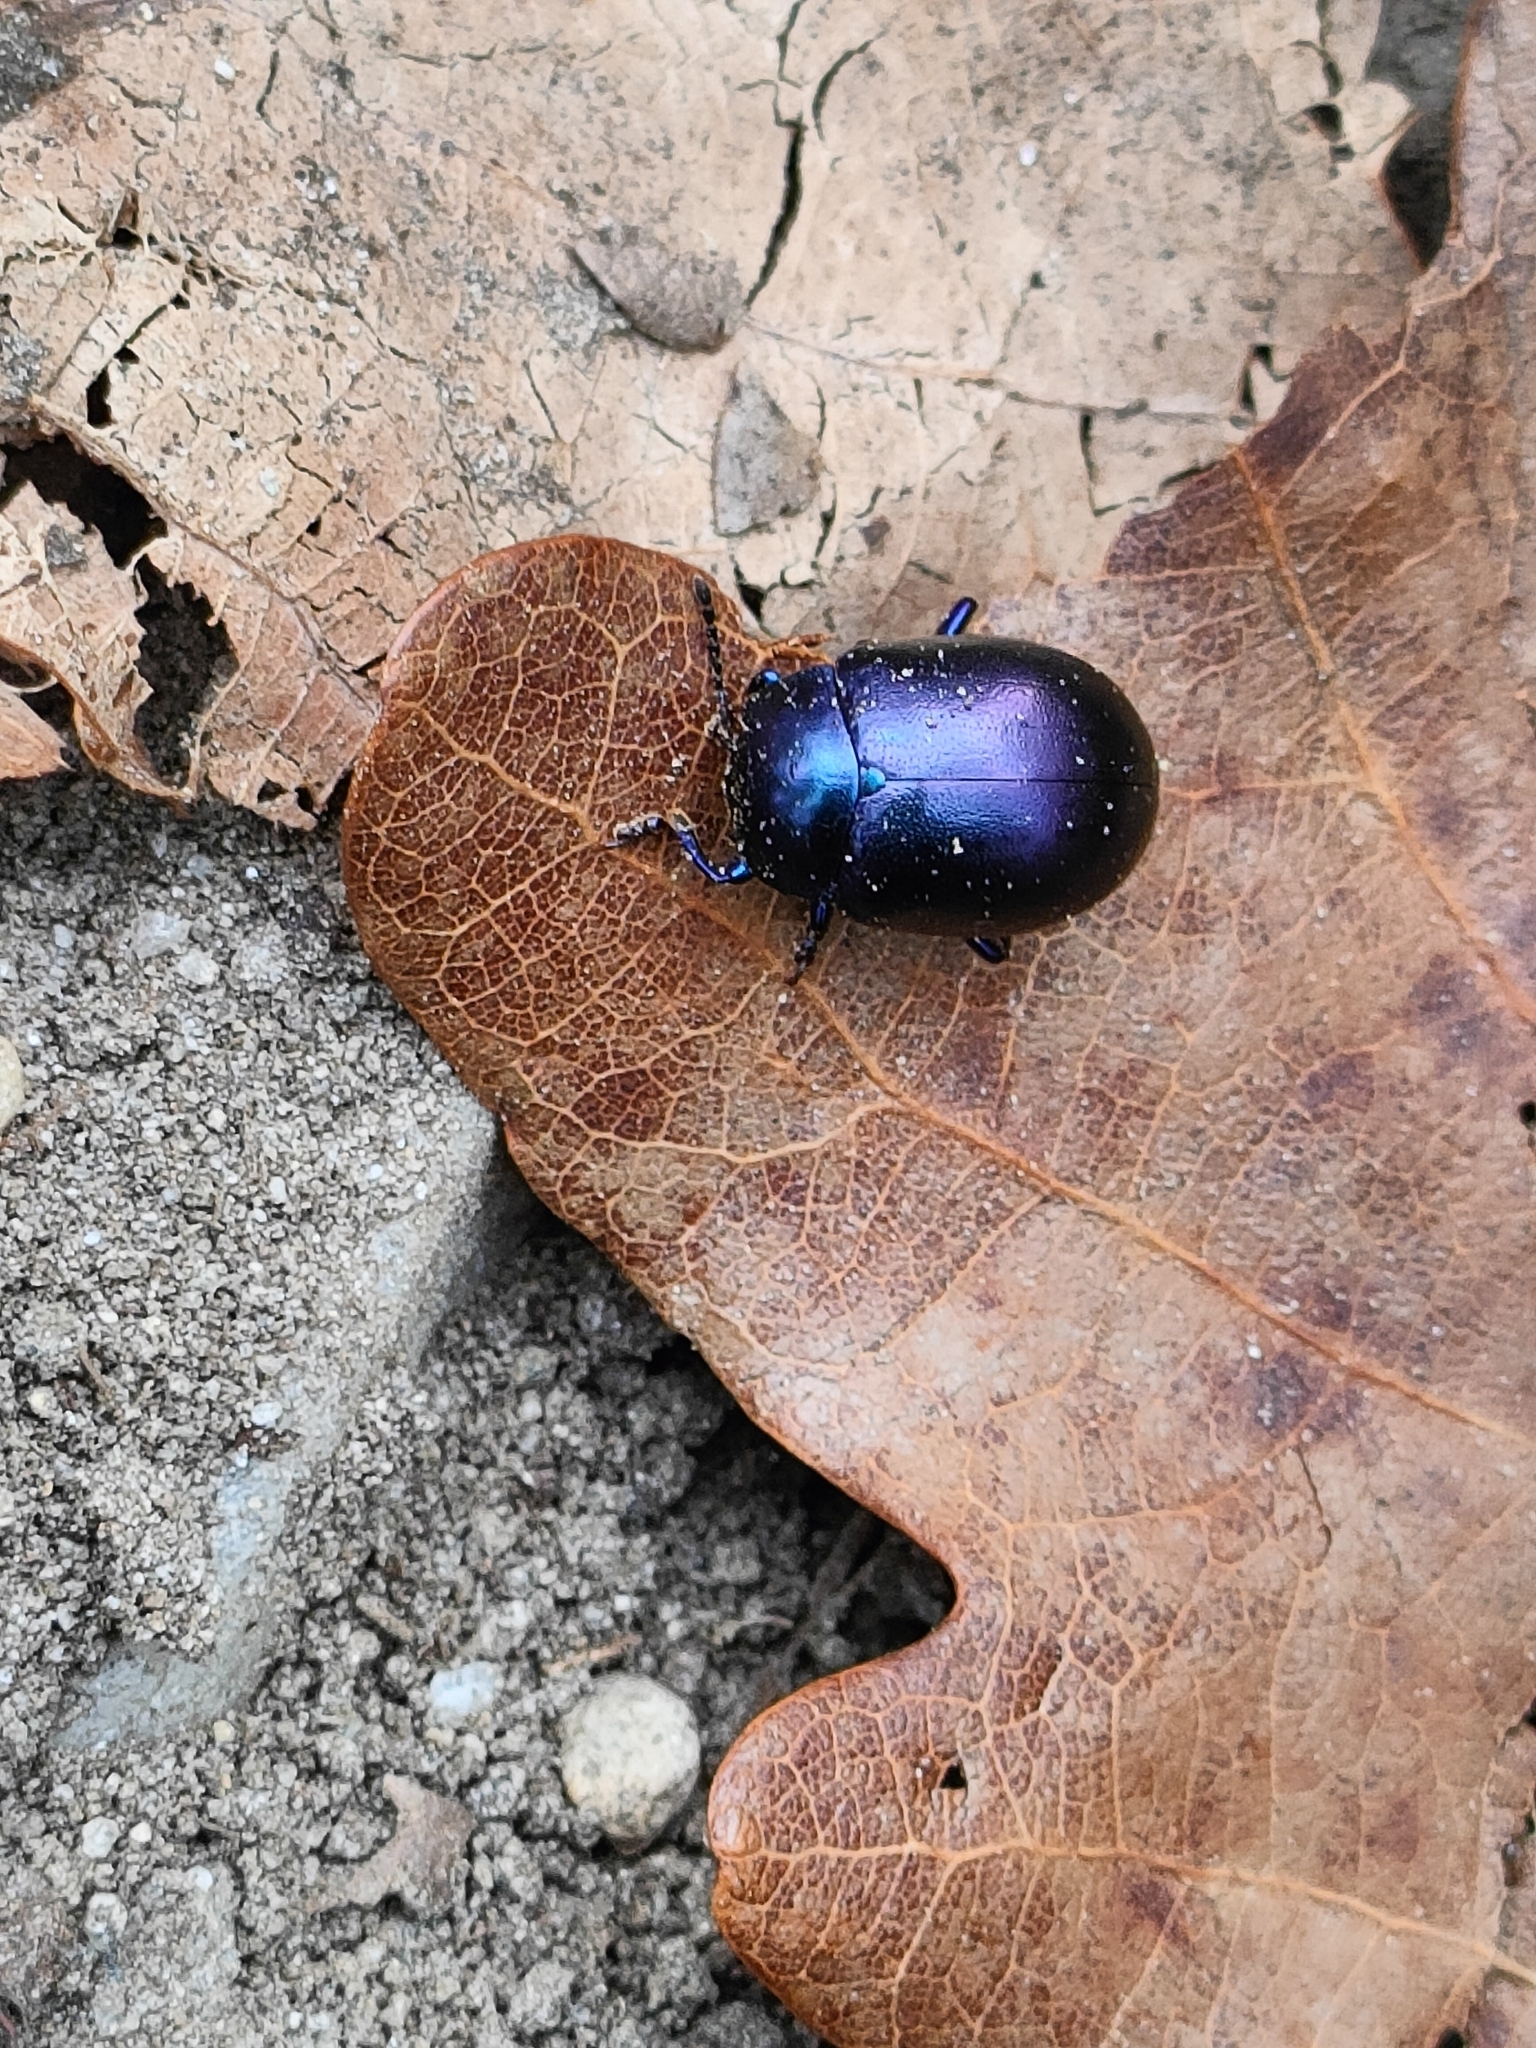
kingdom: Animalia
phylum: Arthropoda
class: Insecta
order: Coleoptera
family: Chrysomelidae
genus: Chrysolina
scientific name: Chrysolina sturmi
